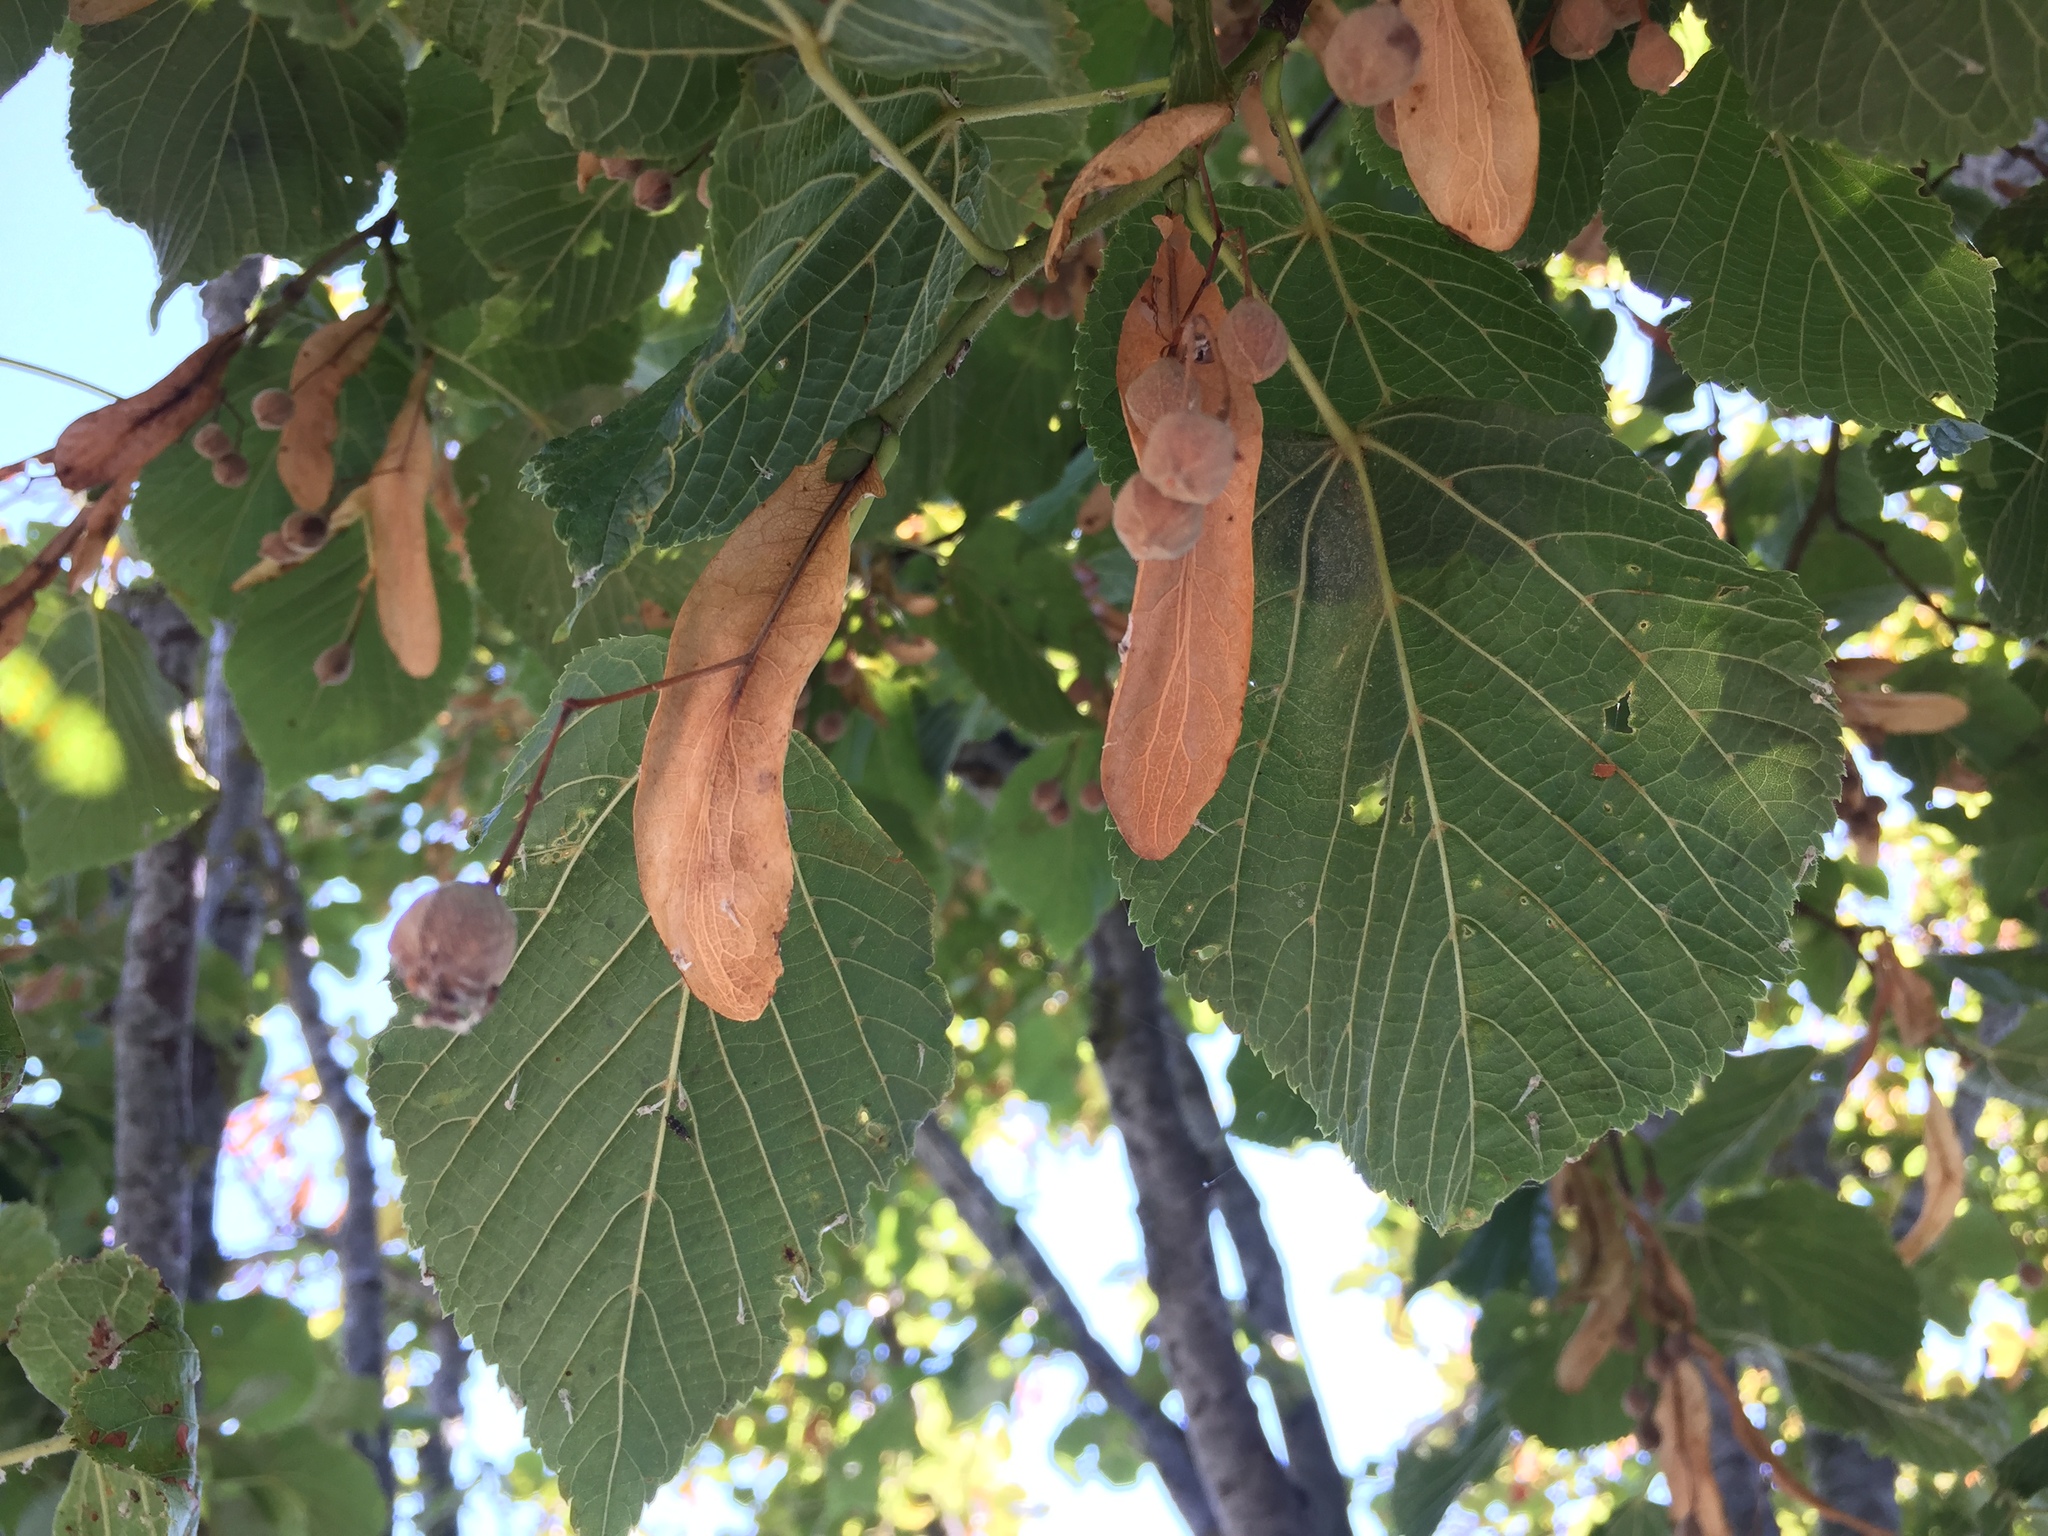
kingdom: Plantae
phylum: Tracheophyta
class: Magnoliopsida
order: Malvales
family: Malvaceae
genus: Tilia
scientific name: Tilia platyphyllos
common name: Large-leaved lime
